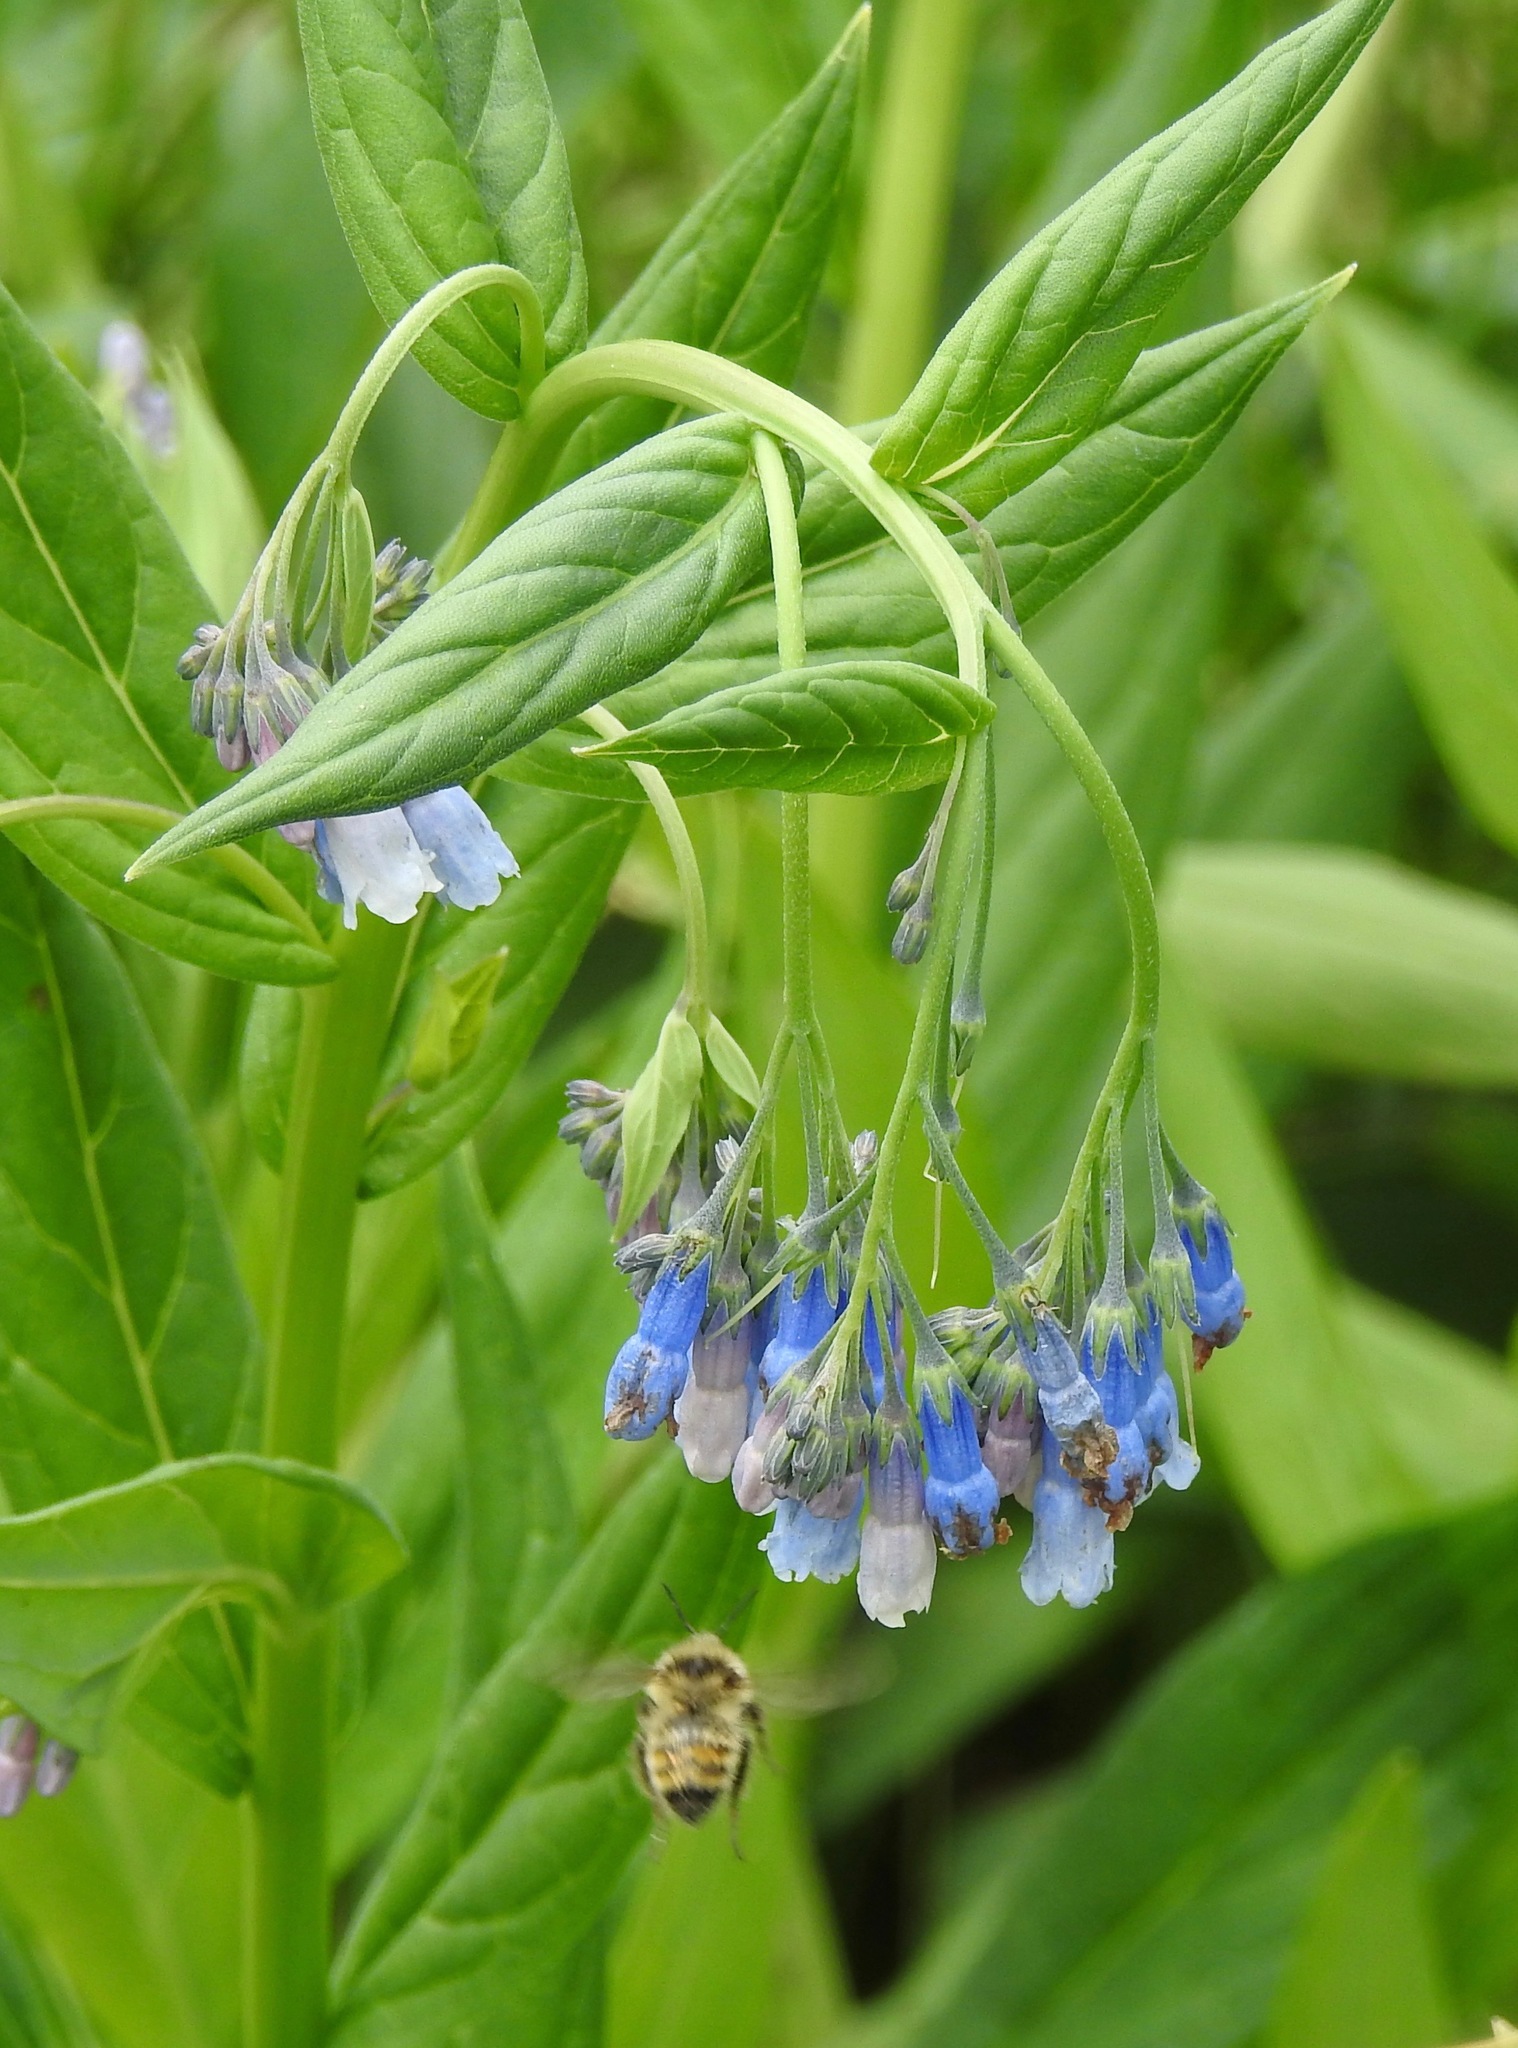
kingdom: Plantae
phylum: Tracheophyta
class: Magnoliopsida
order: Boraginales
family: Boraginaceae
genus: Mertensia
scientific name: Mertensia franciscana
